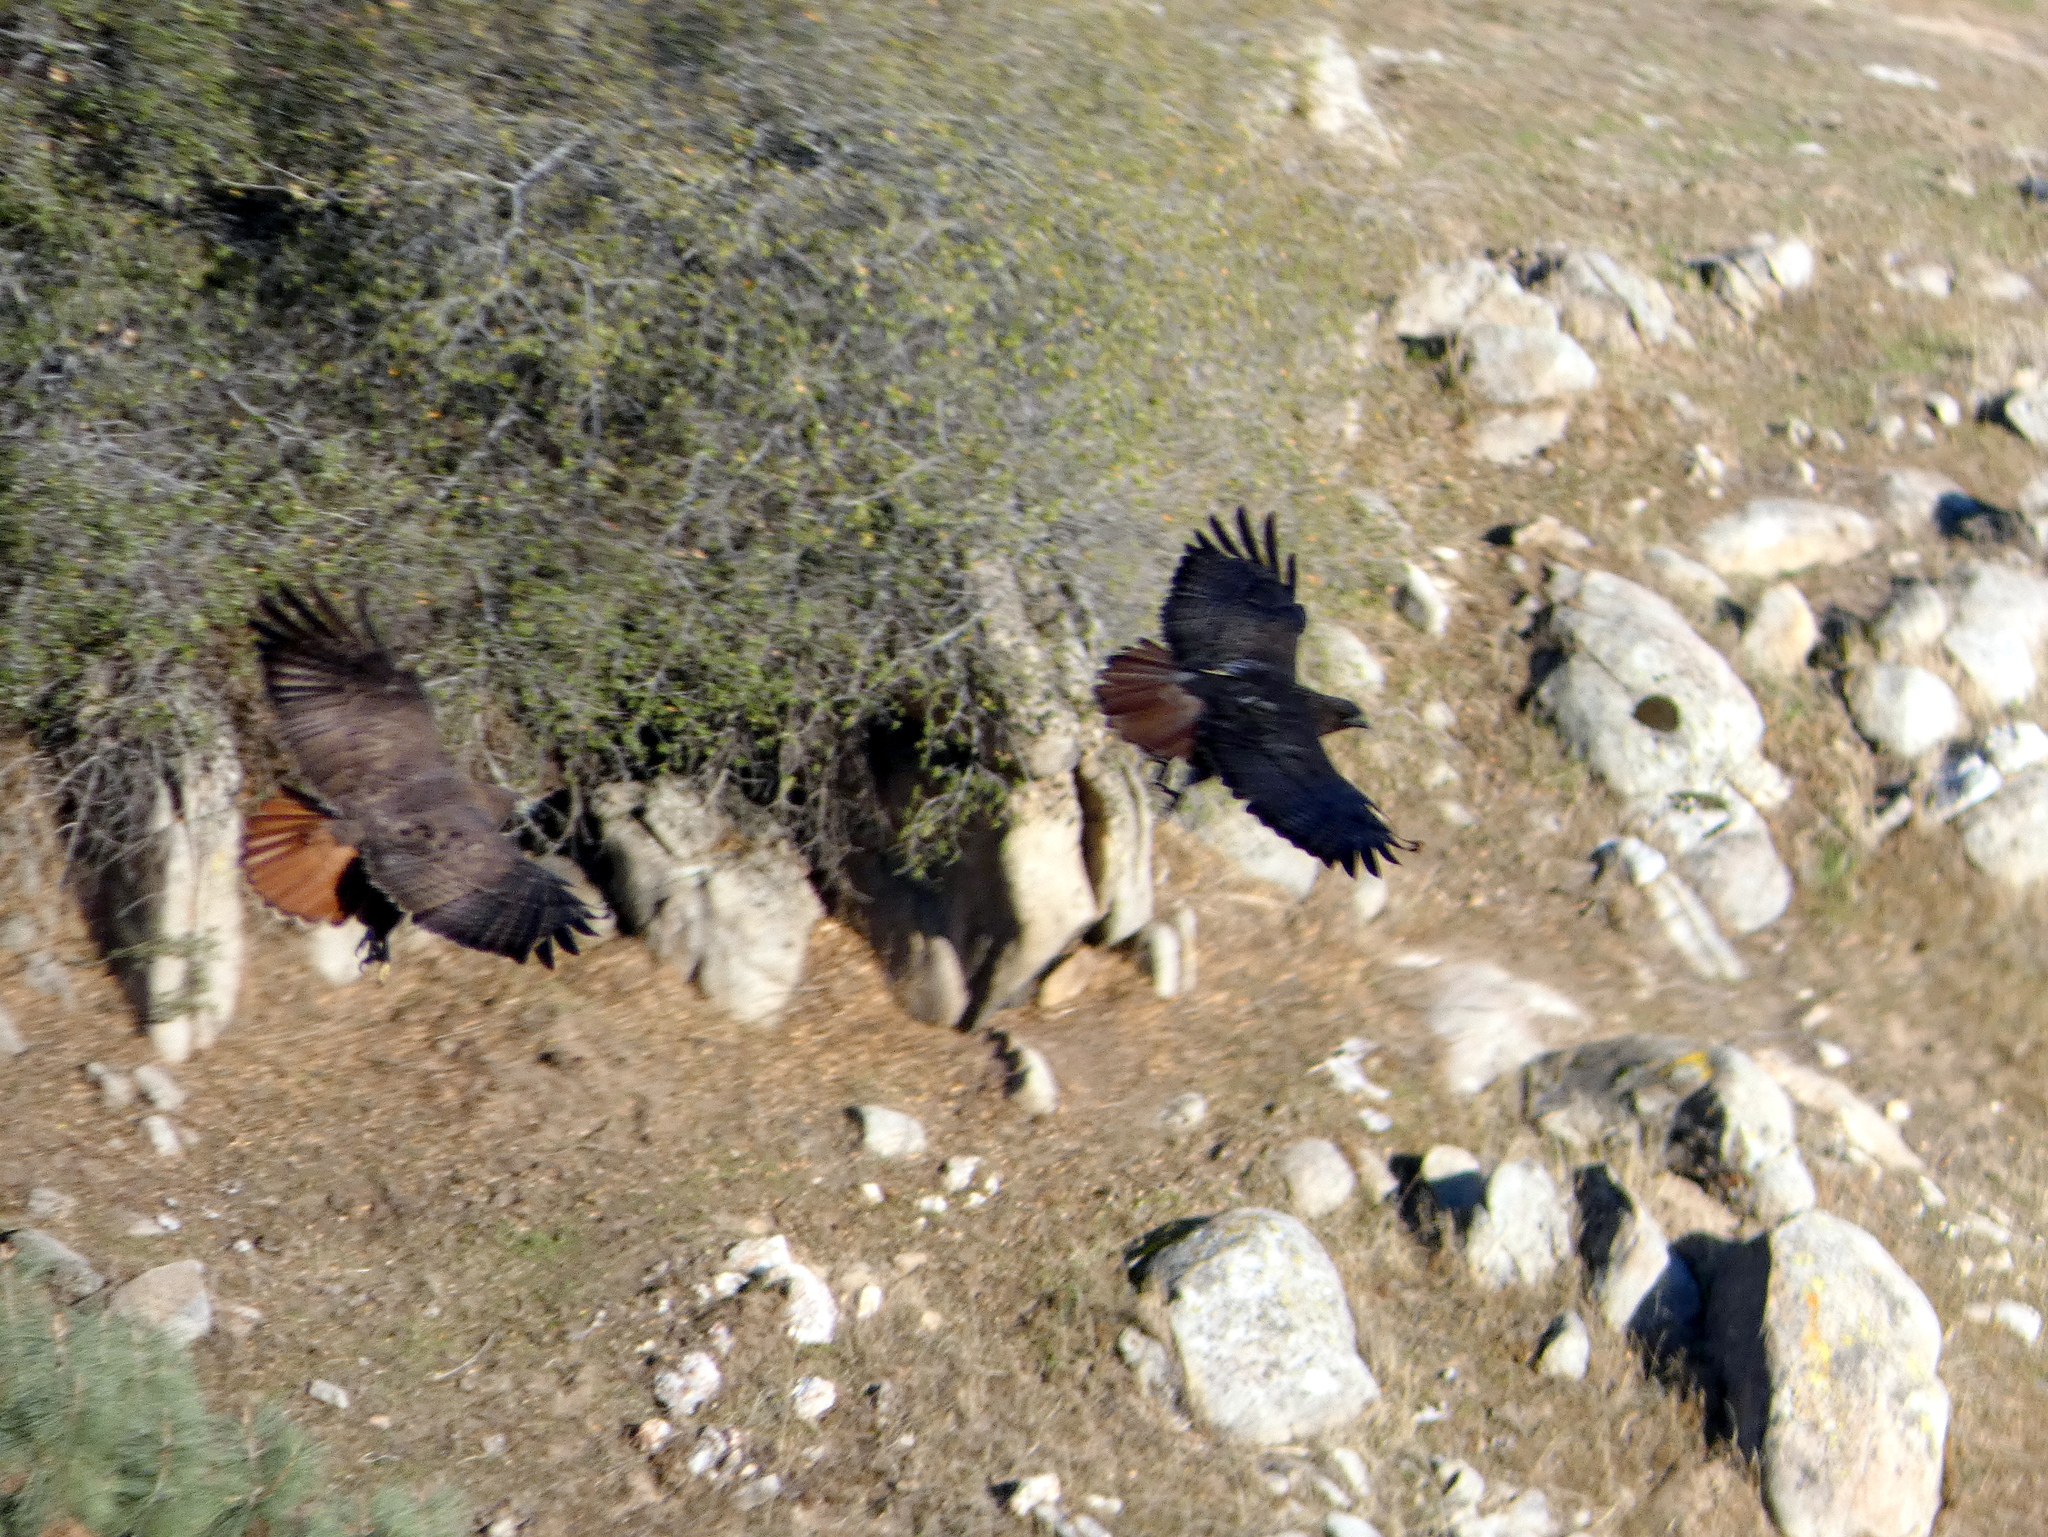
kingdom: Animalia
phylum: Chordata
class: Aves
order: Accipitriformes
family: Accipitridae
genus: Buteo
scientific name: Buteo jamaicensis
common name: Red-tailed hawk
